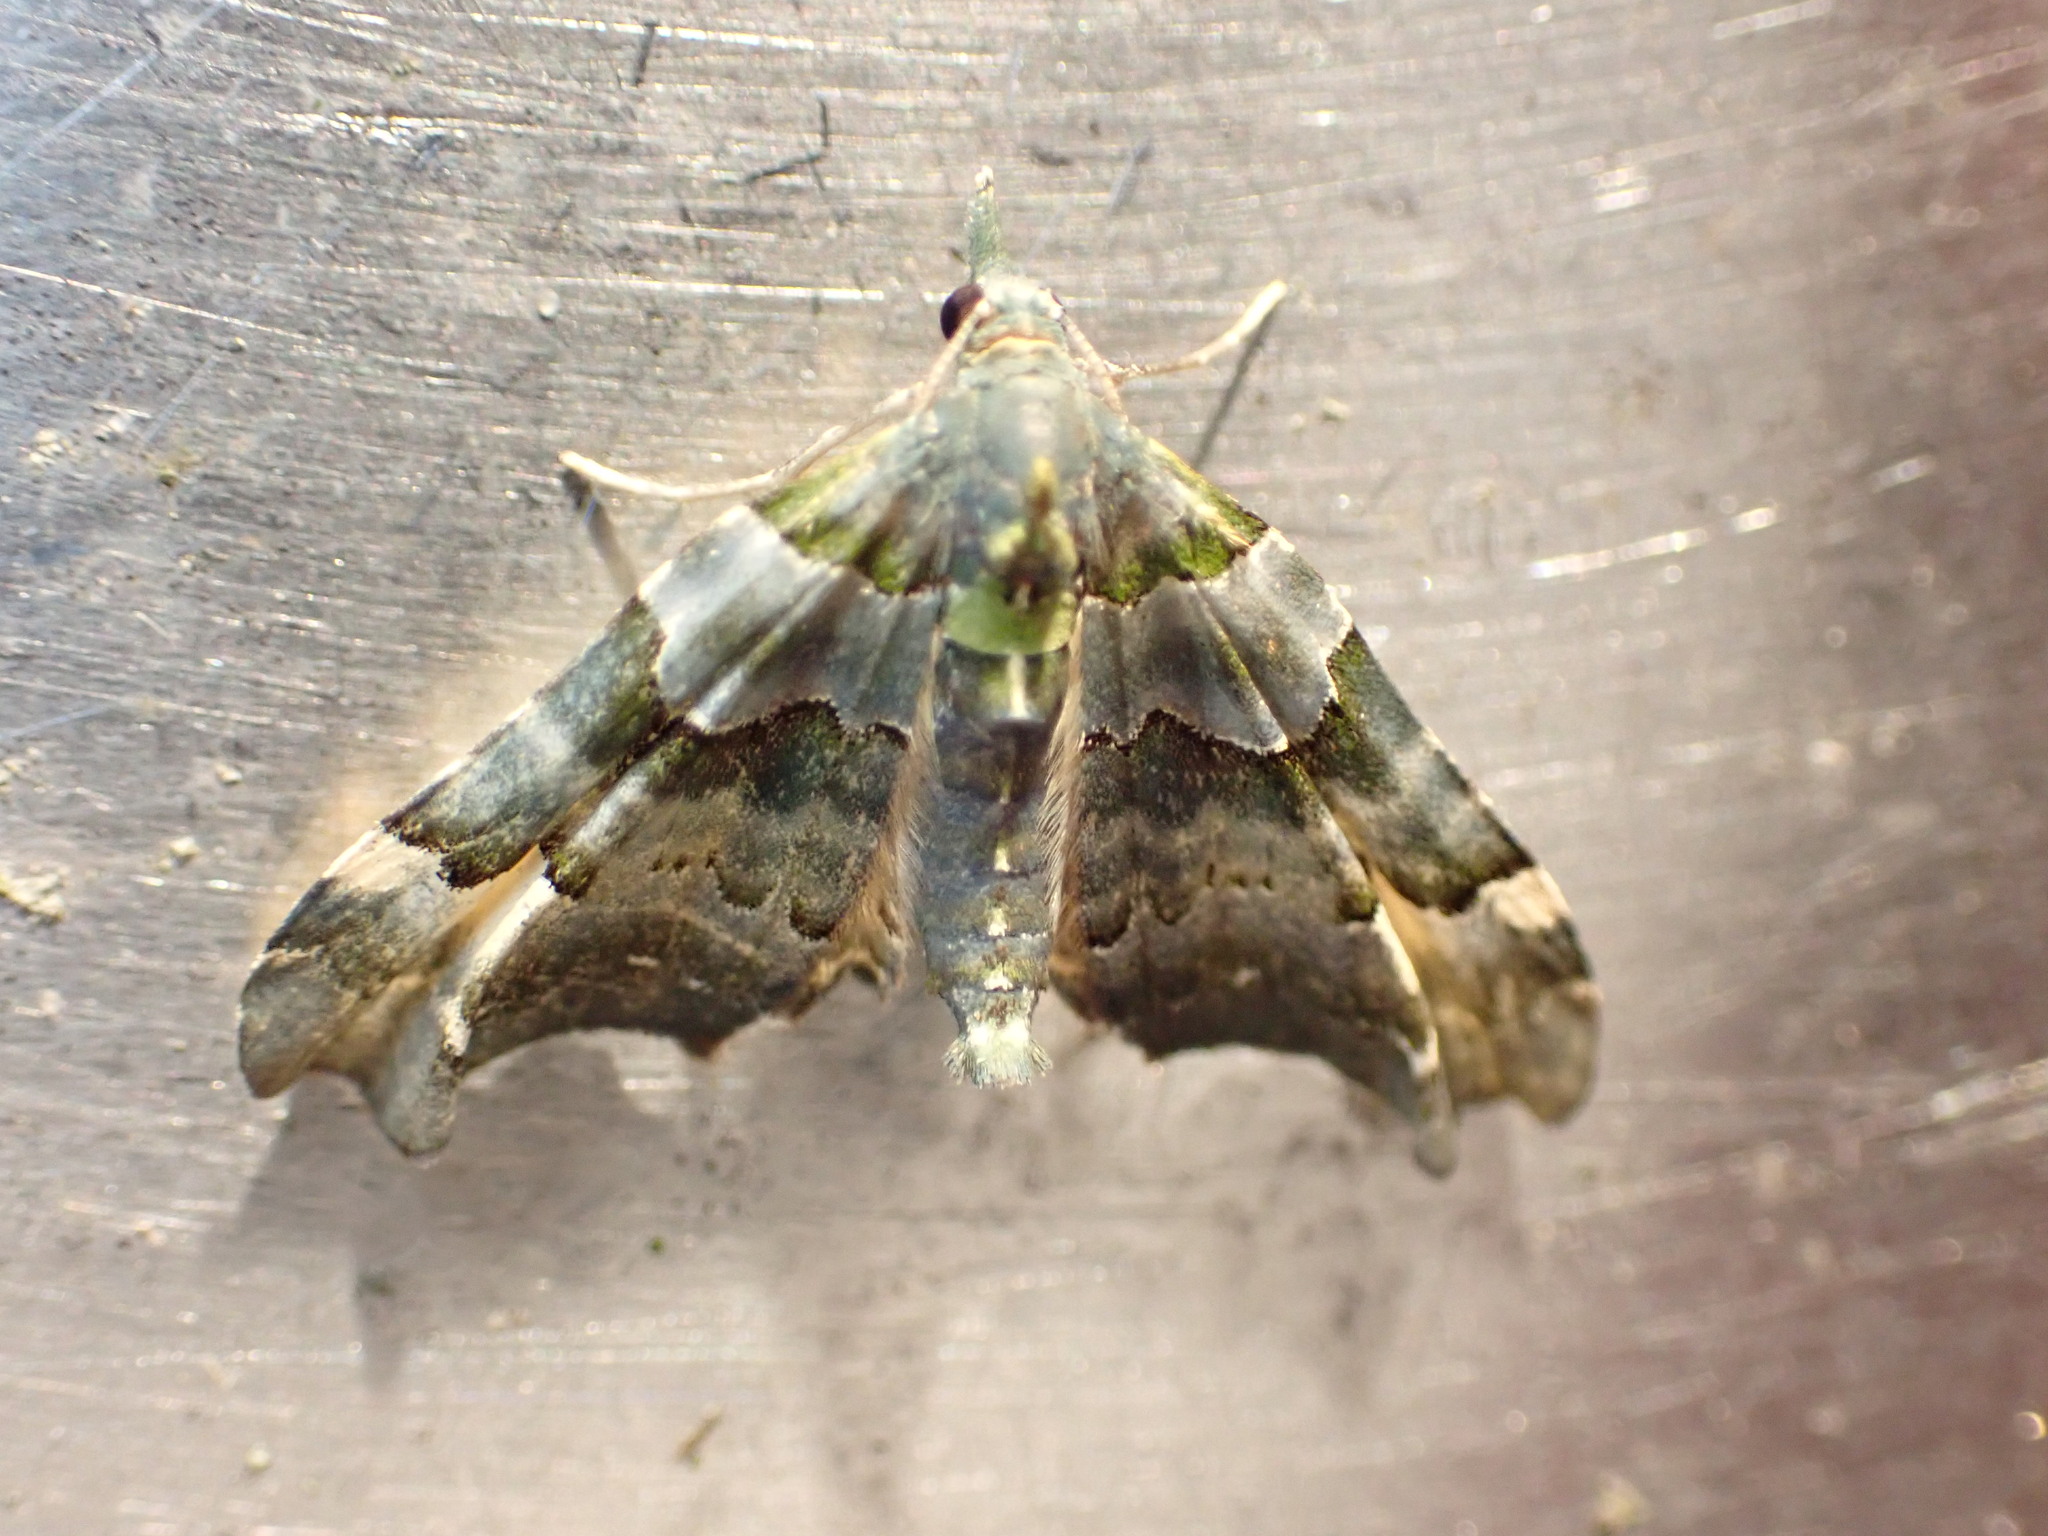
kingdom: Animalia
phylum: Arthropoda
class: Insecta
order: Lepidoptera
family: Geometridae
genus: Elvia
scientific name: Elvia glaucata
